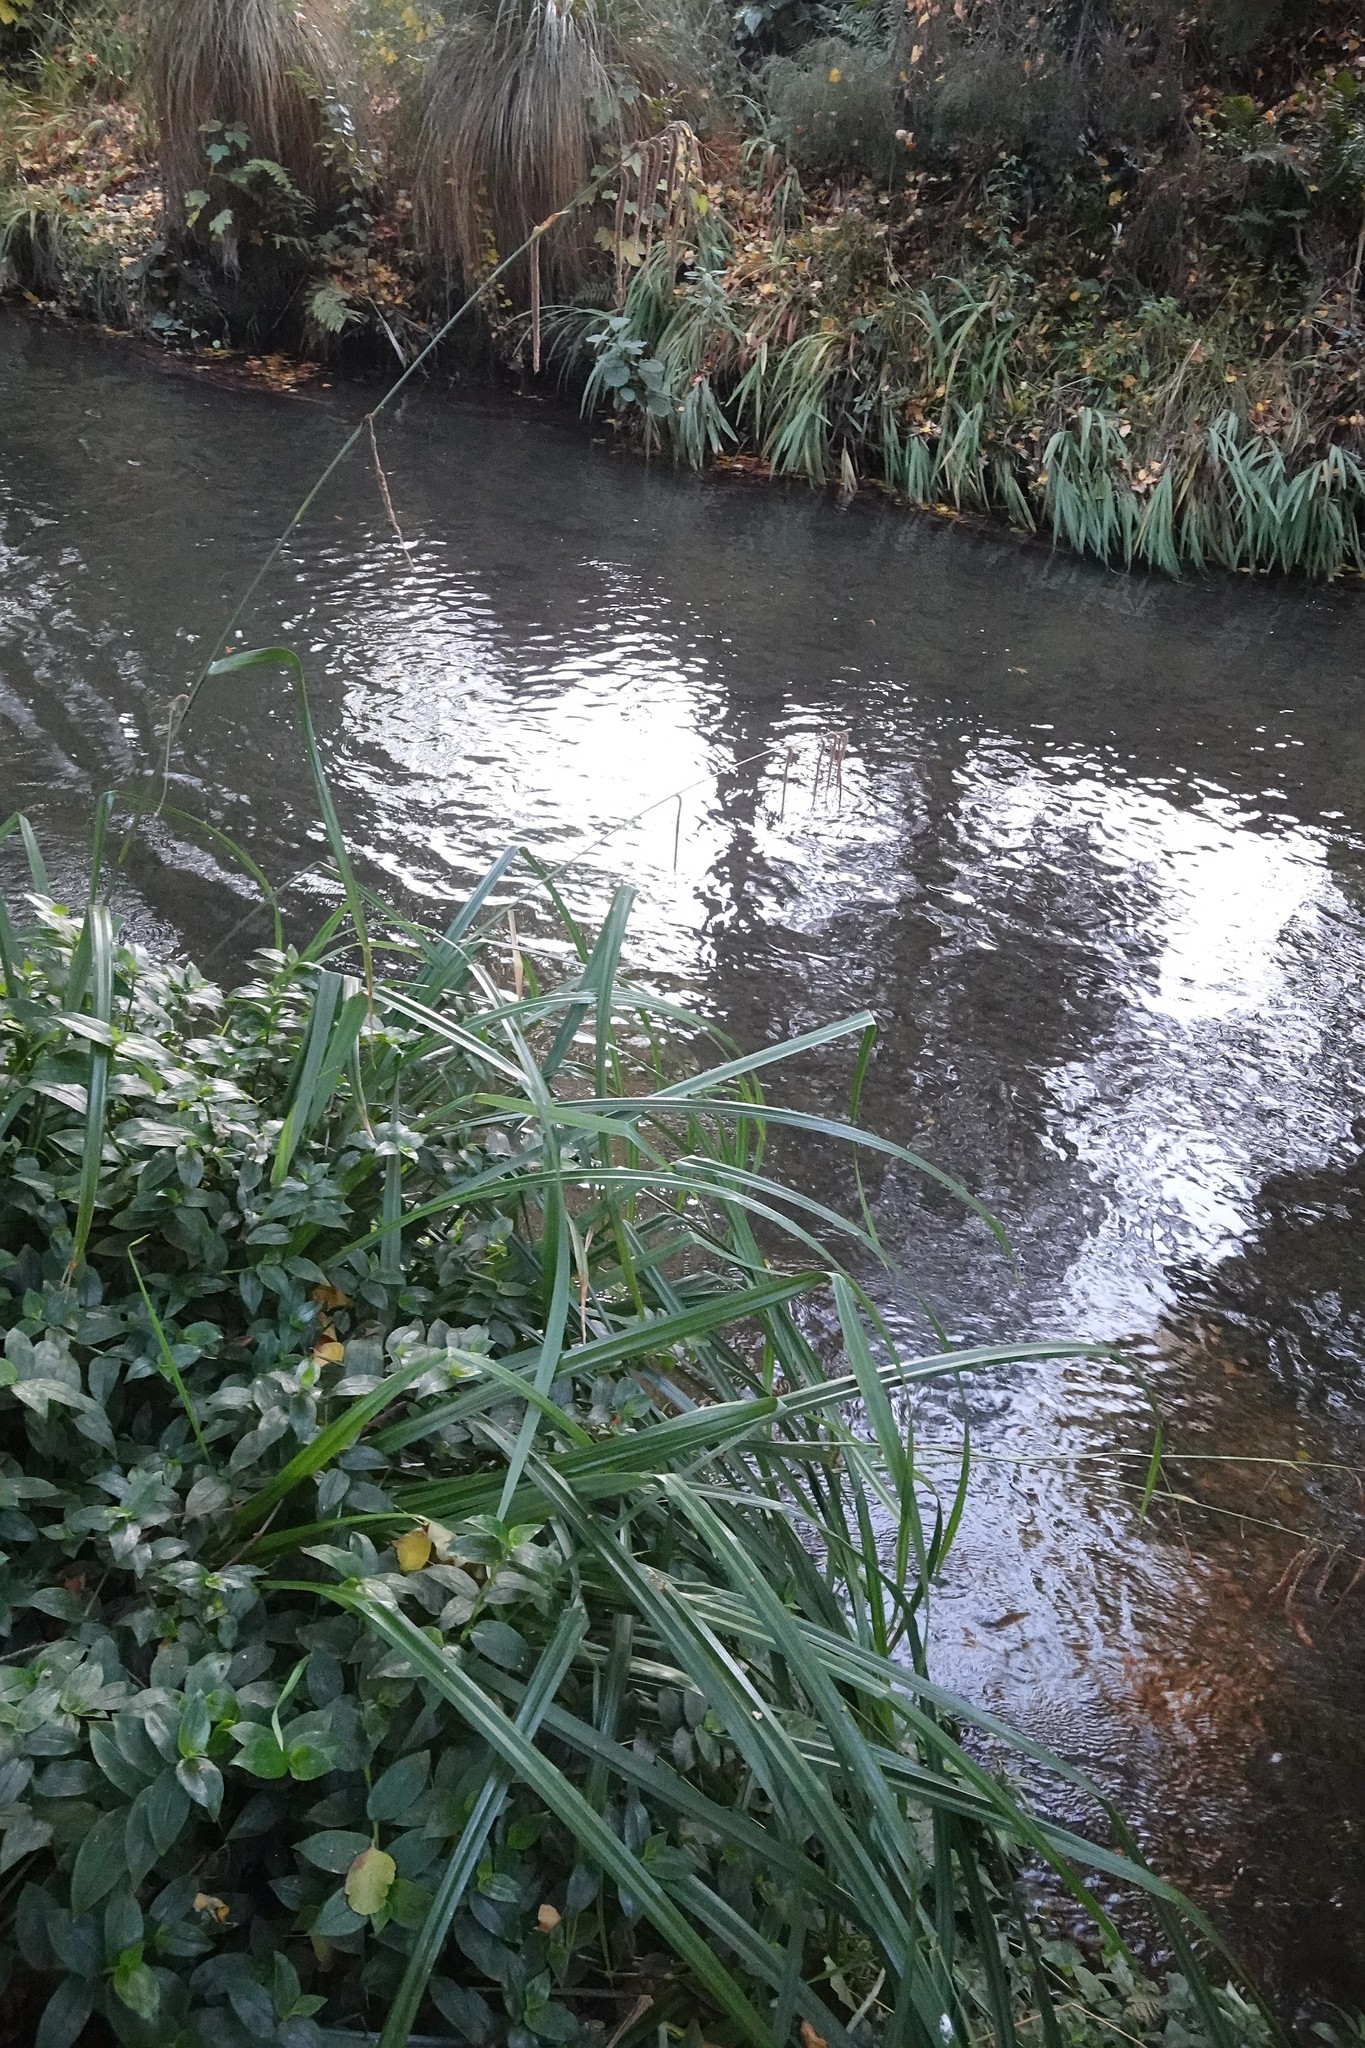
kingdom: Plantae
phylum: Tracheophyta
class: Liliopsida
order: Commelinales
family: Commelinaceae
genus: Tradescantia
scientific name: Tradescantia fluminensis
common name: Wandering-jew
